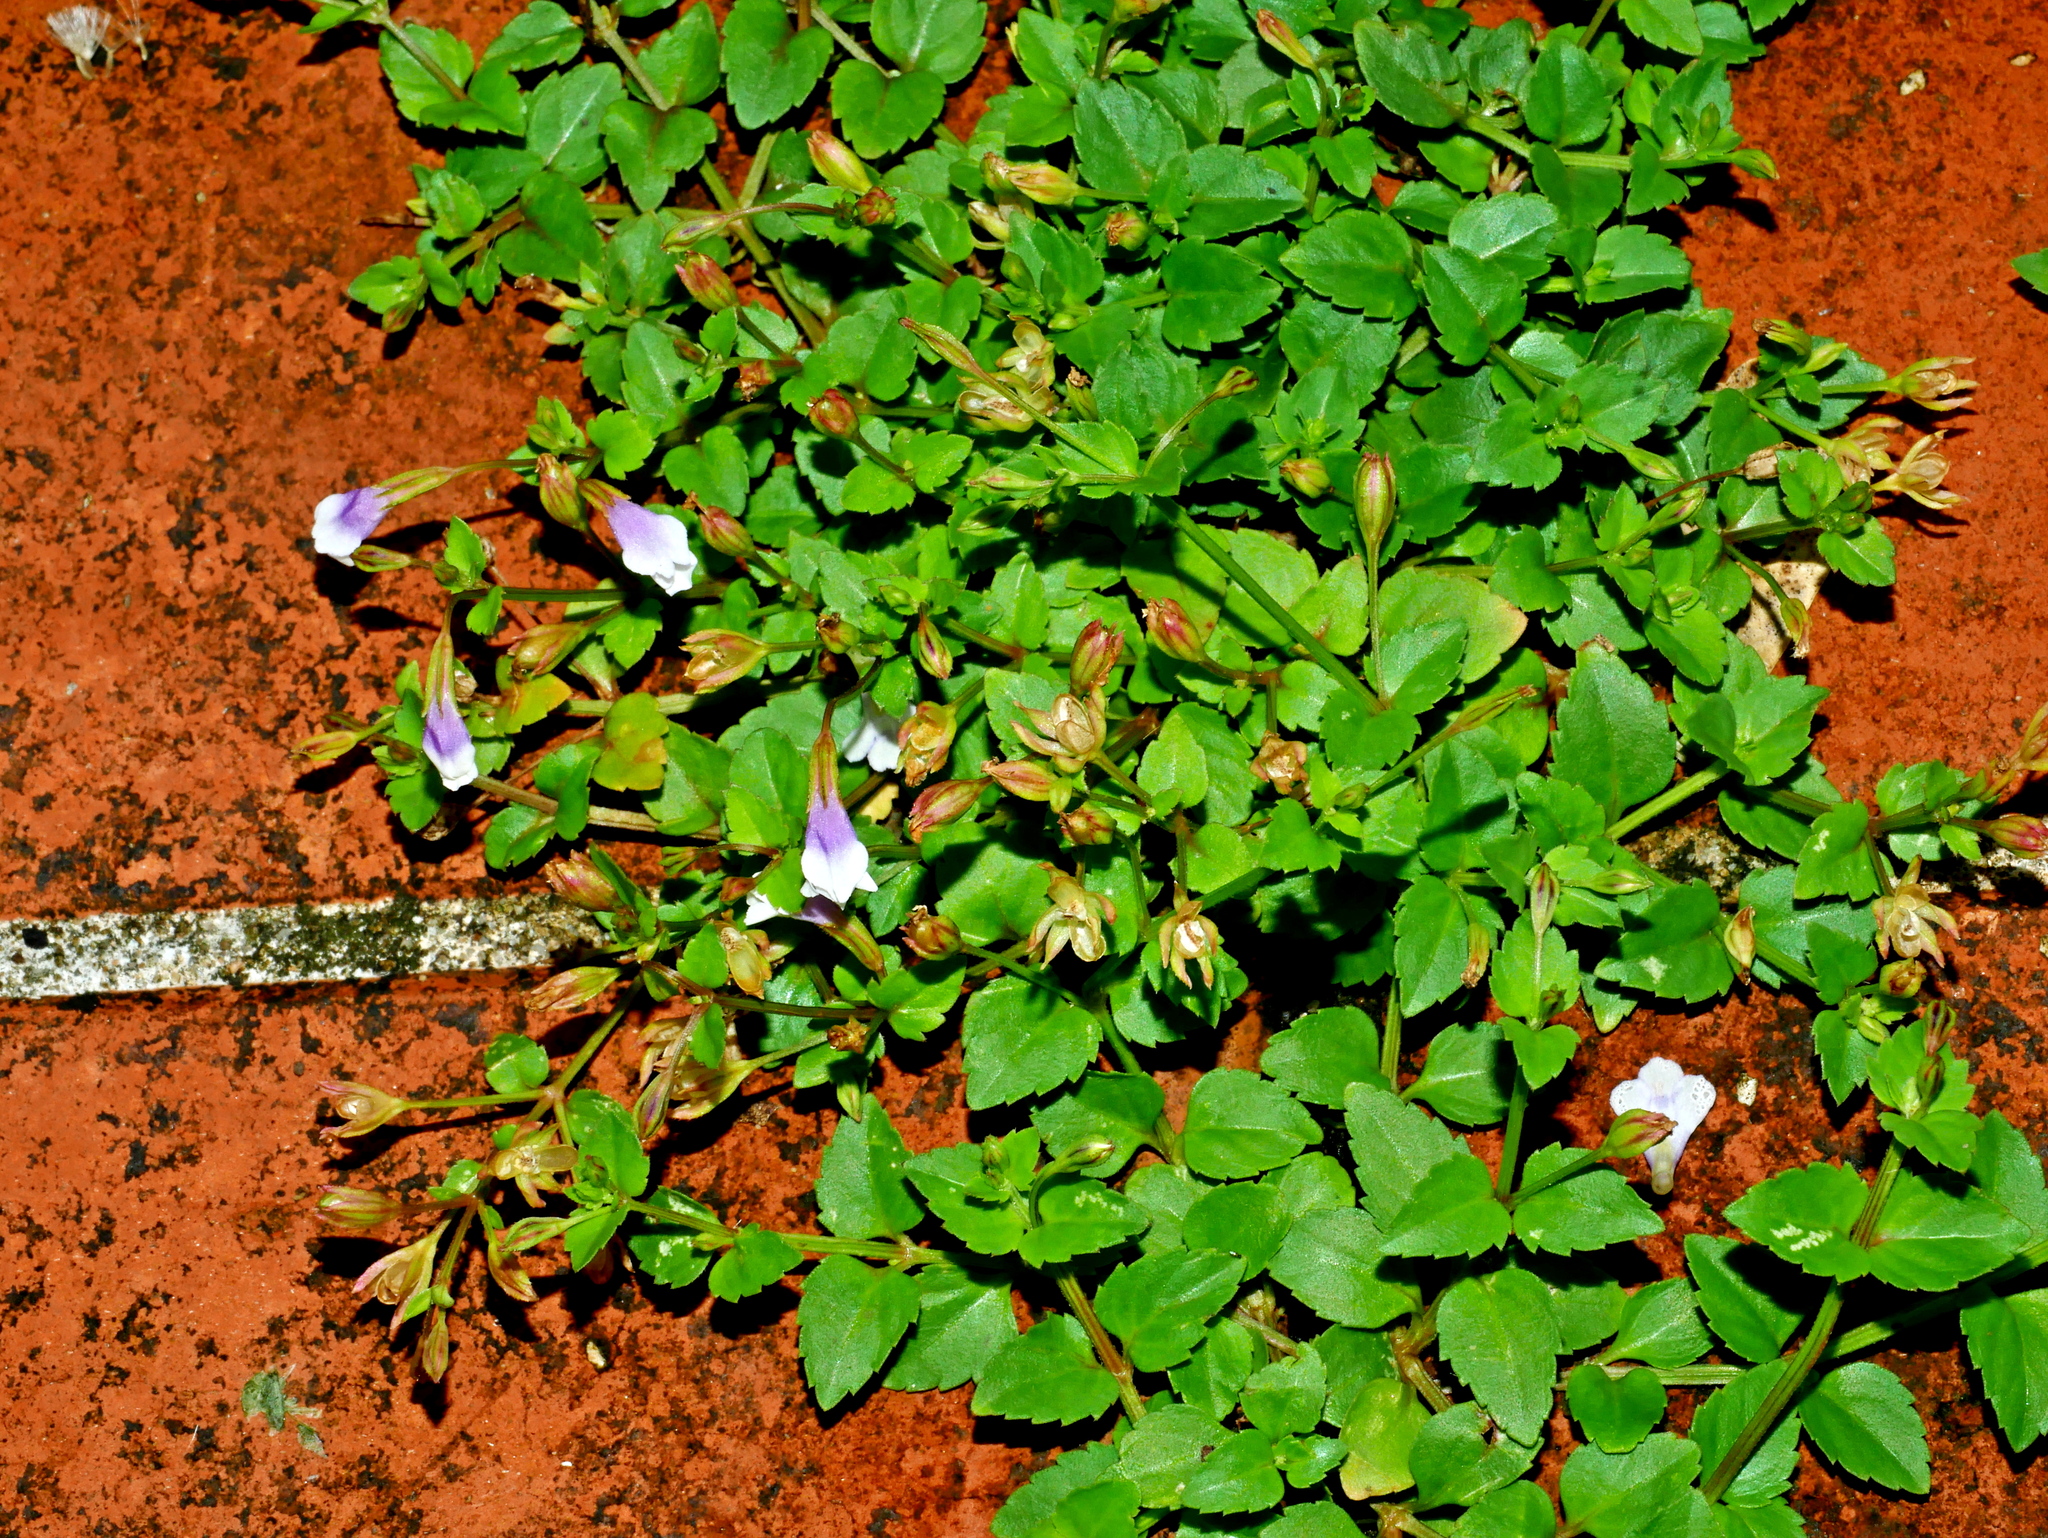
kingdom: Plantae
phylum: Tracheophyta
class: Magnoliopsida
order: Lamiales
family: Linderniaceae
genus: Torenia
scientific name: Torenia crustacea
